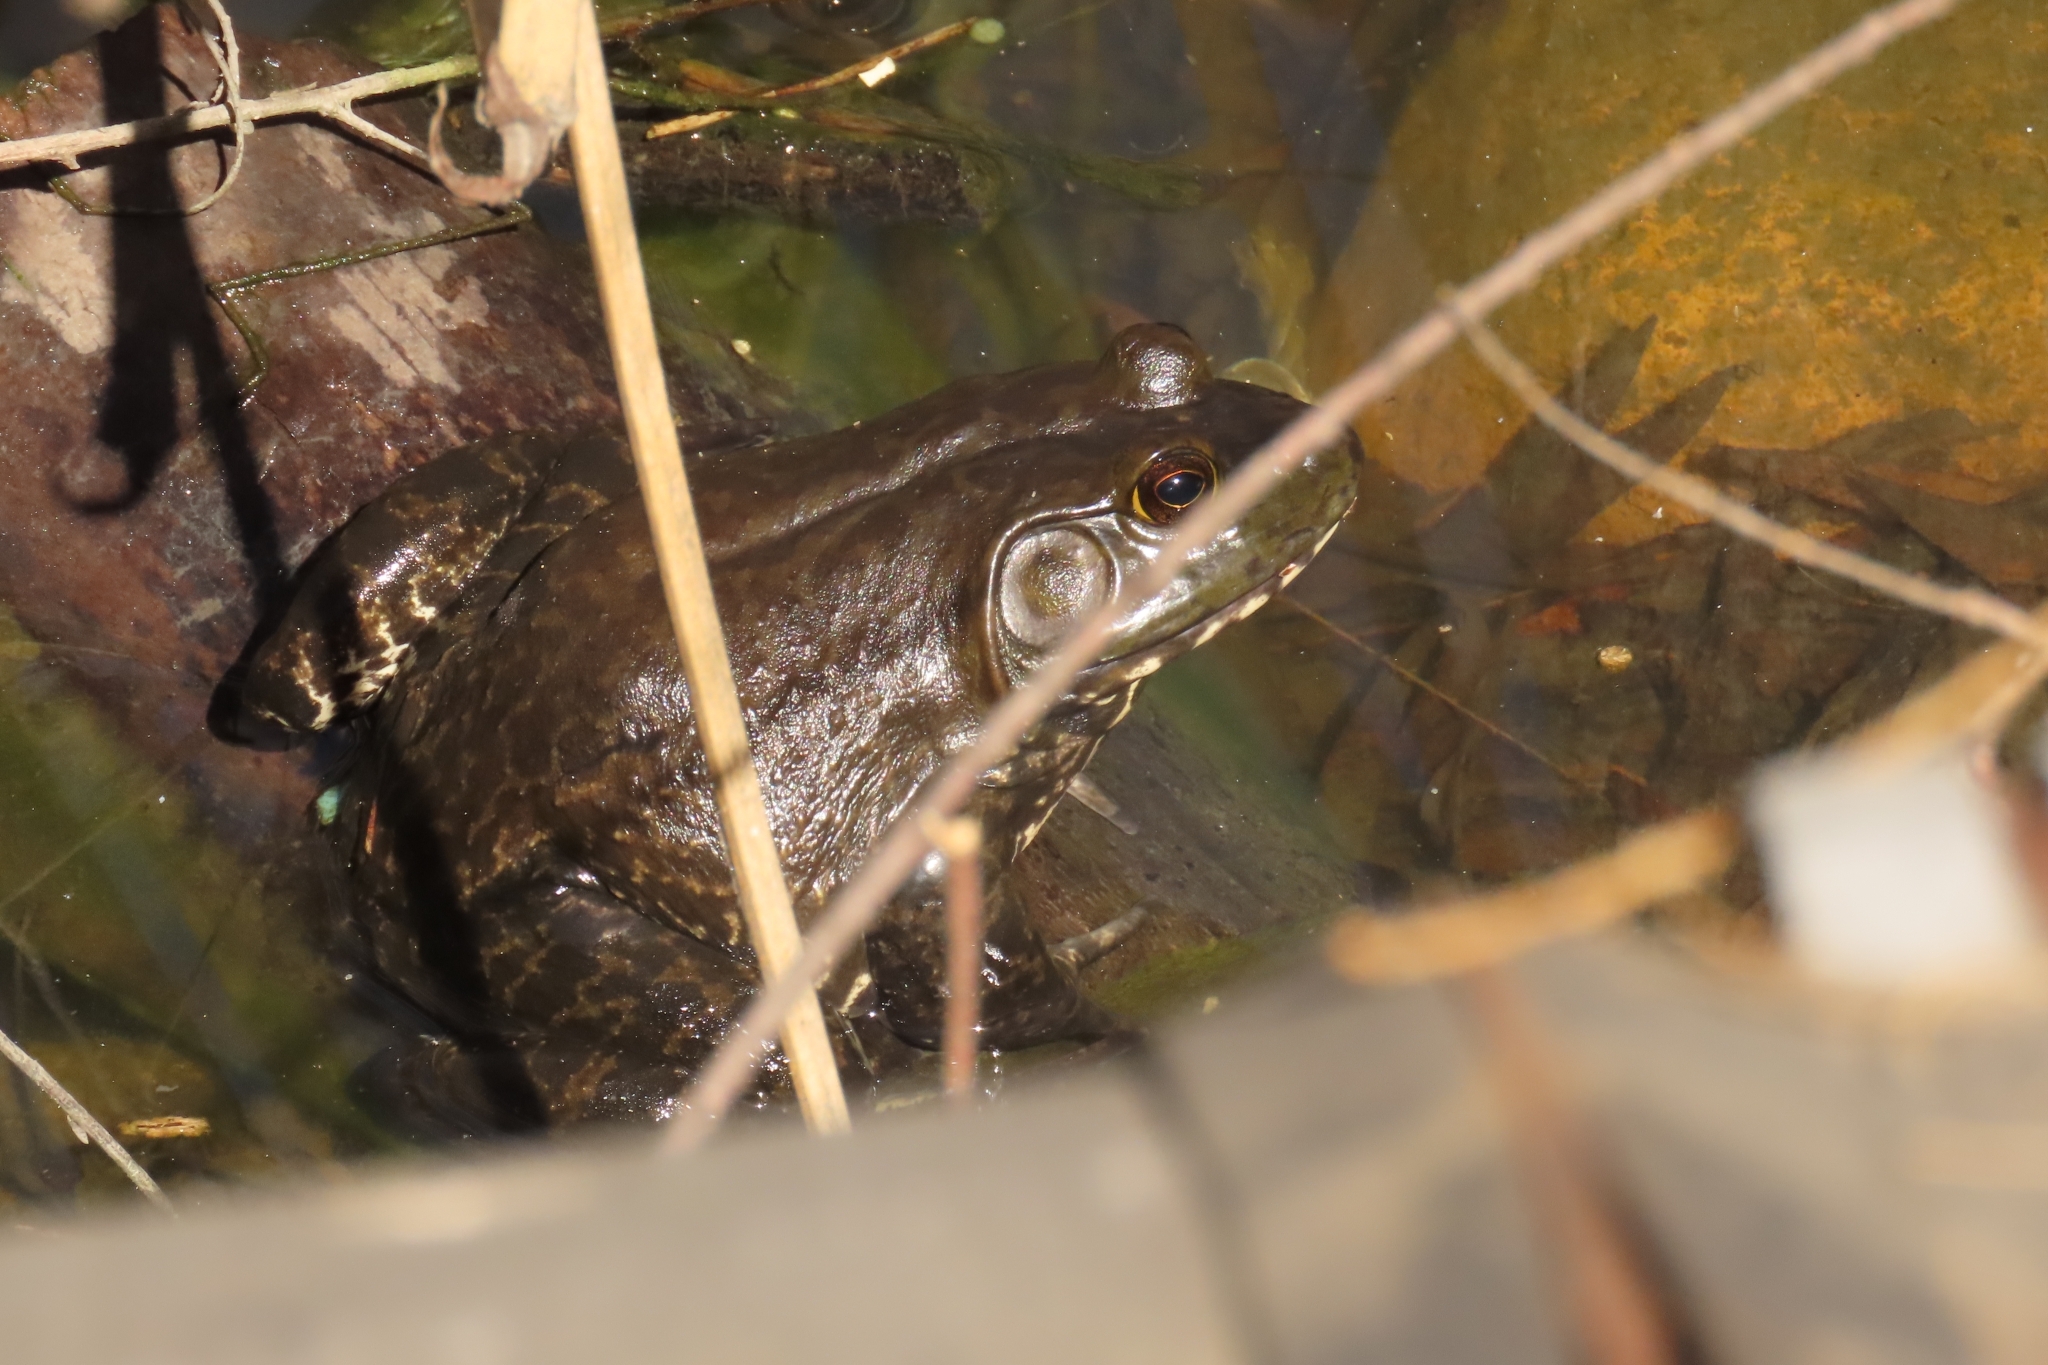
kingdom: Animalia
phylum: Chordata
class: Amphibia
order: Anura
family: Ranidae
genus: Lithobates
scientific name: Lithobates catesbeianus
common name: American bullfrog
